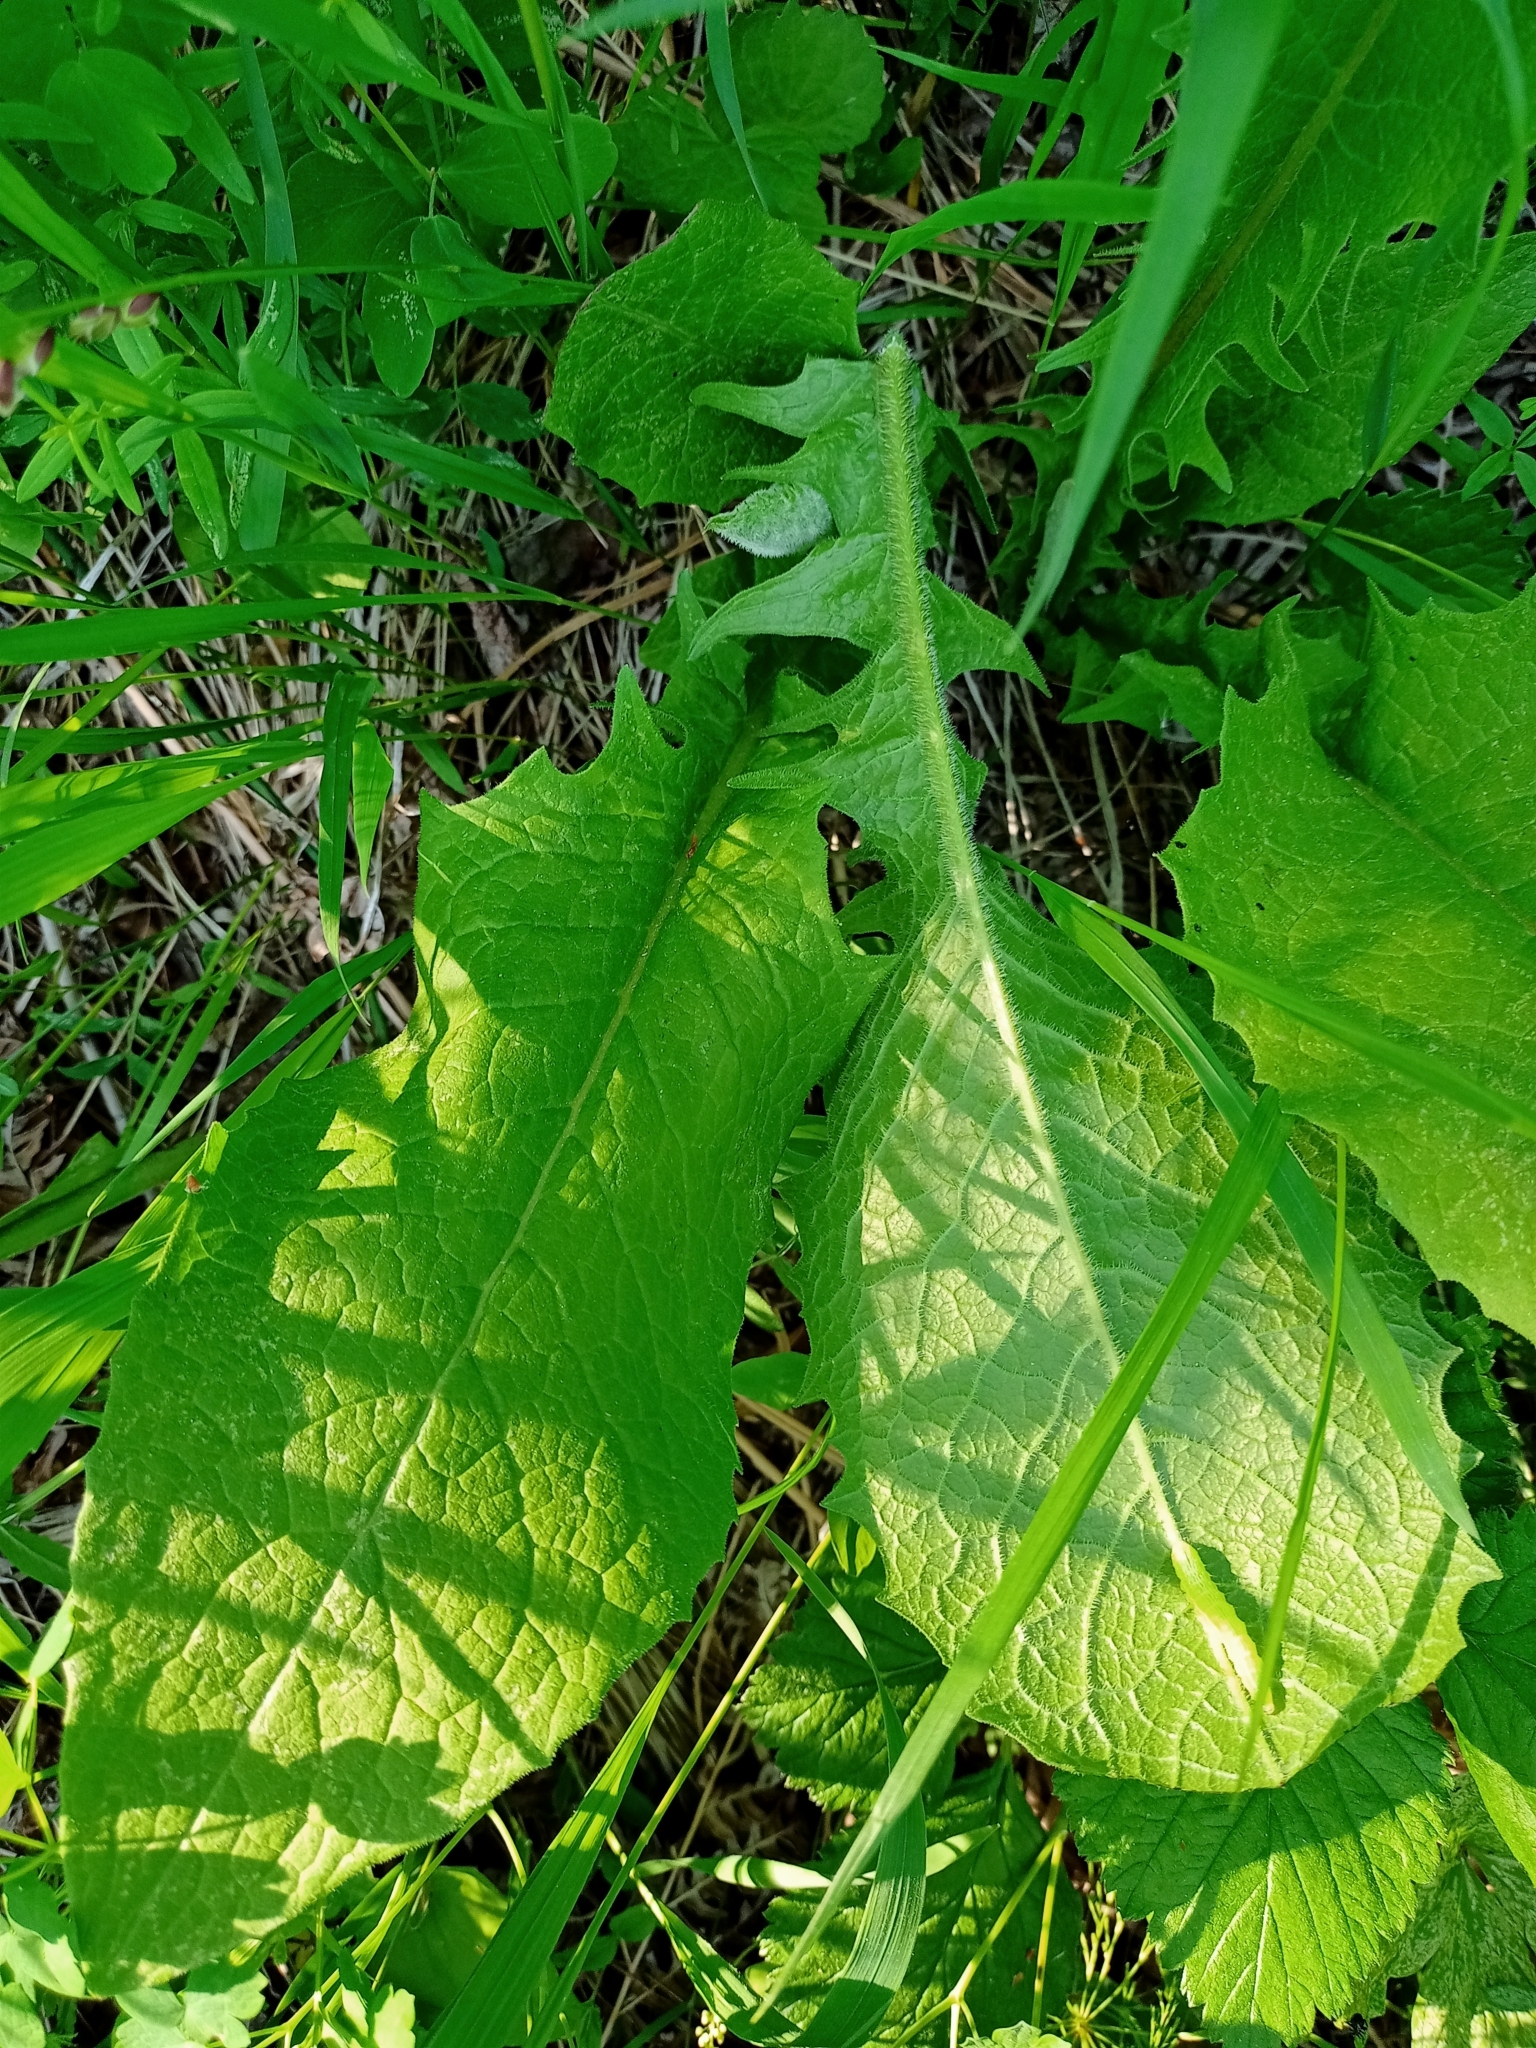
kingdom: Plantae
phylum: Tracheophyta
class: Magnoliopsida
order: Asterales
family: Asteraceae
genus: Crepis
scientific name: Crepis sibirica
